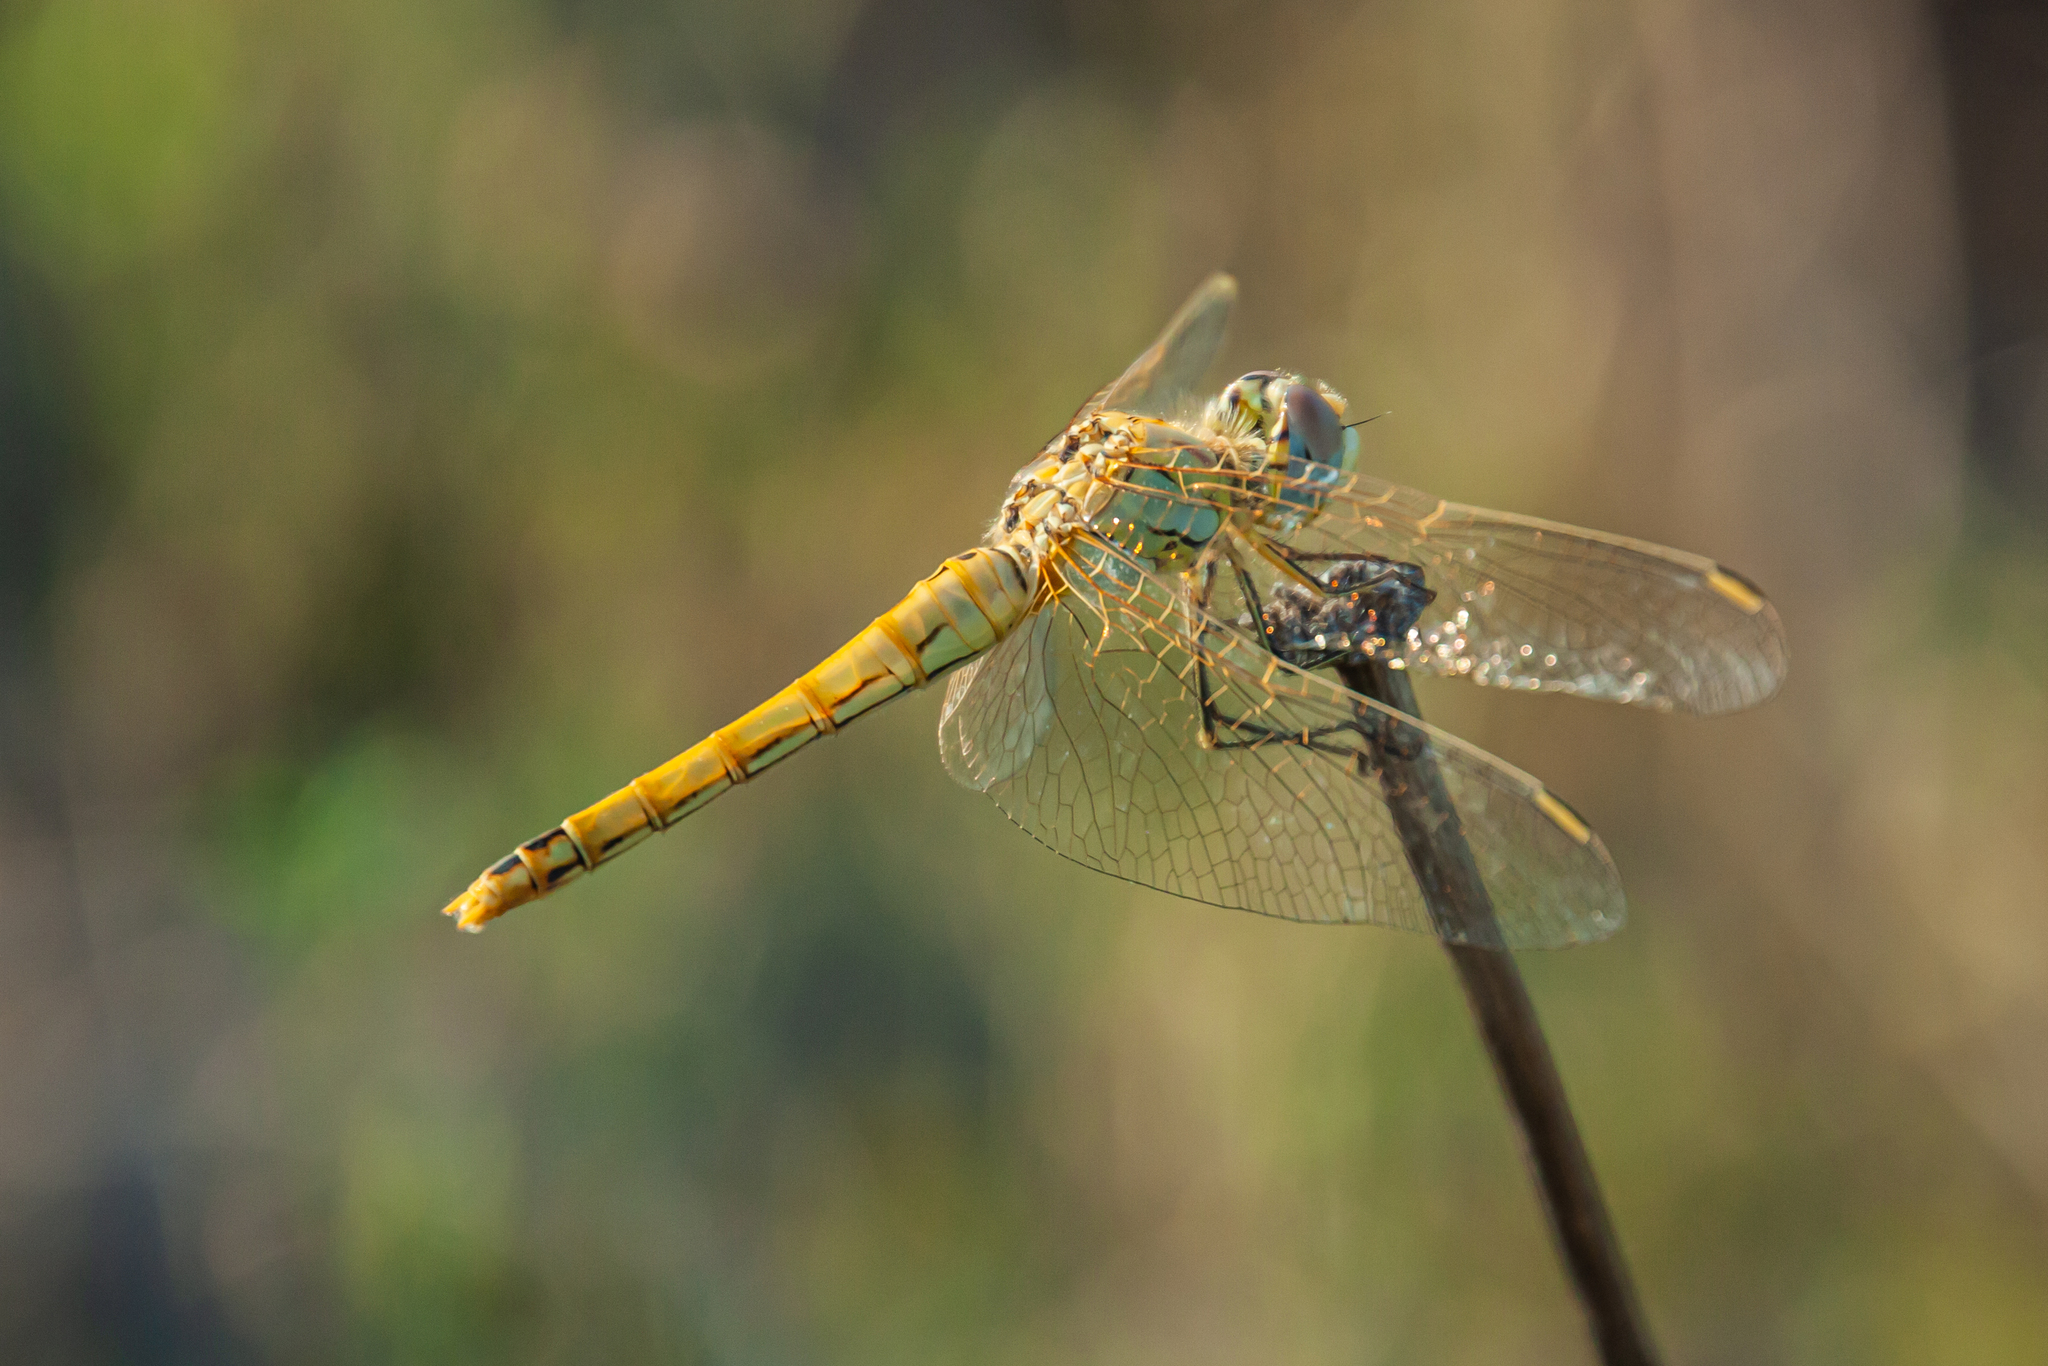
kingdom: Animalia
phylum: Arthropoda
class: Insecta
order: Odonata
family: Libellulidae
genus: Sympetrum
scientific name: Sympetrum fonscolombii
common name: Red-veined darter
